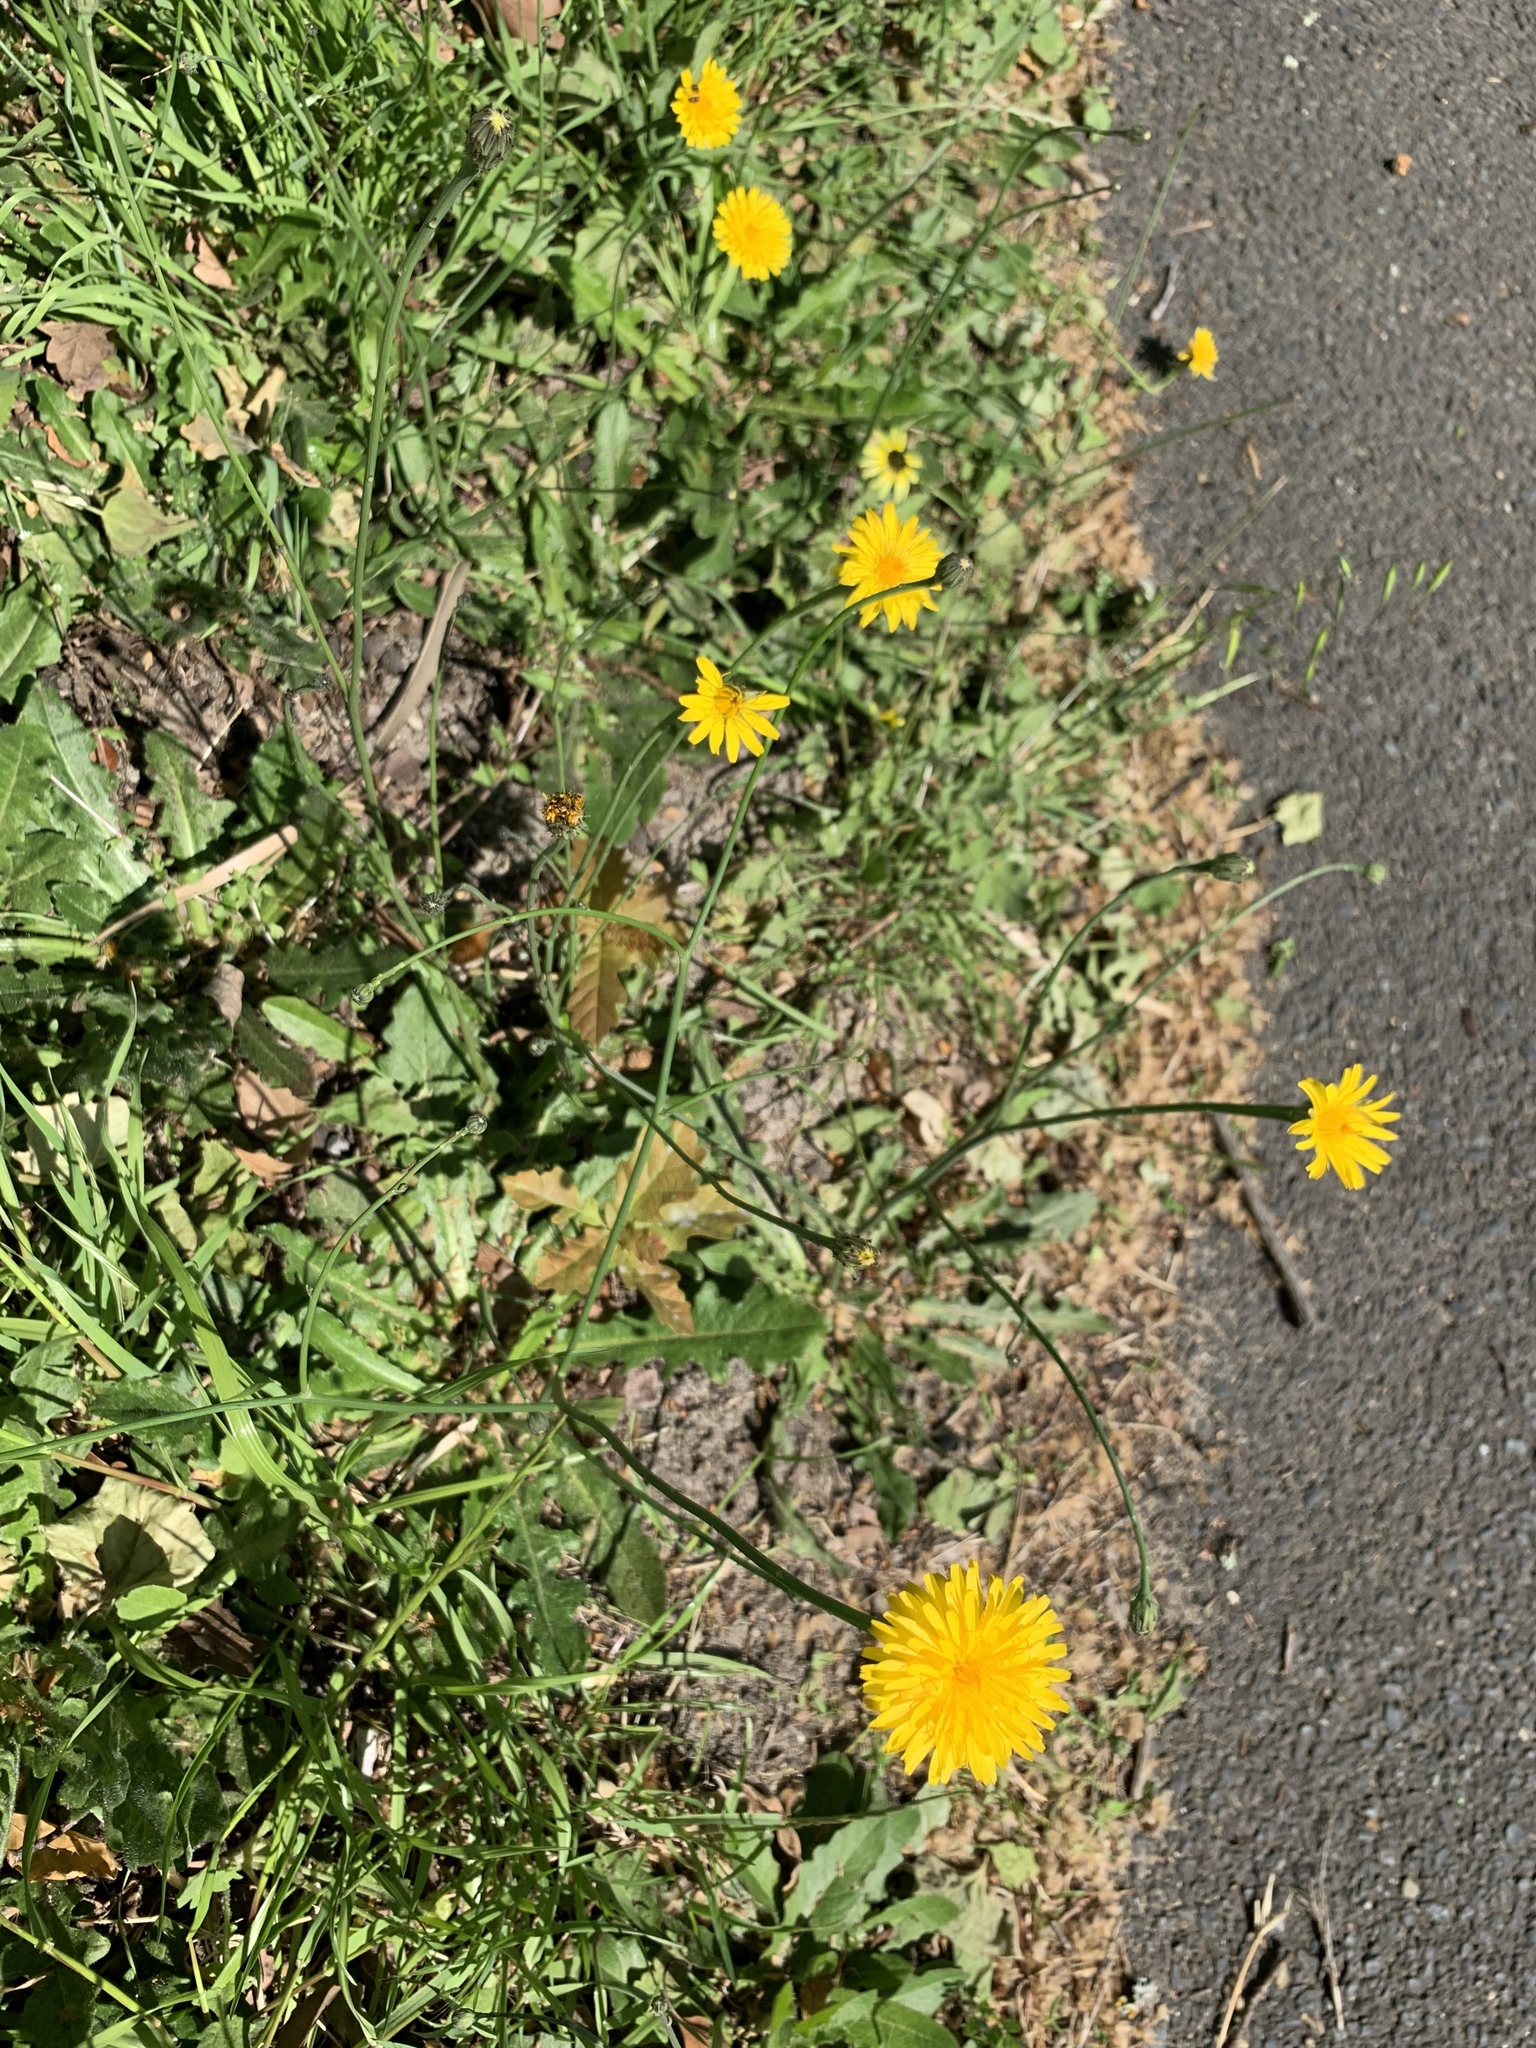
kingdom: Plantae
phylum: Tracheophyta
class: Magnoliopsida
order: Asterales
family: Asteraceae
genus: Hypochaeris
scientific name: Hypochaeris radicata
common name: Flatweed
